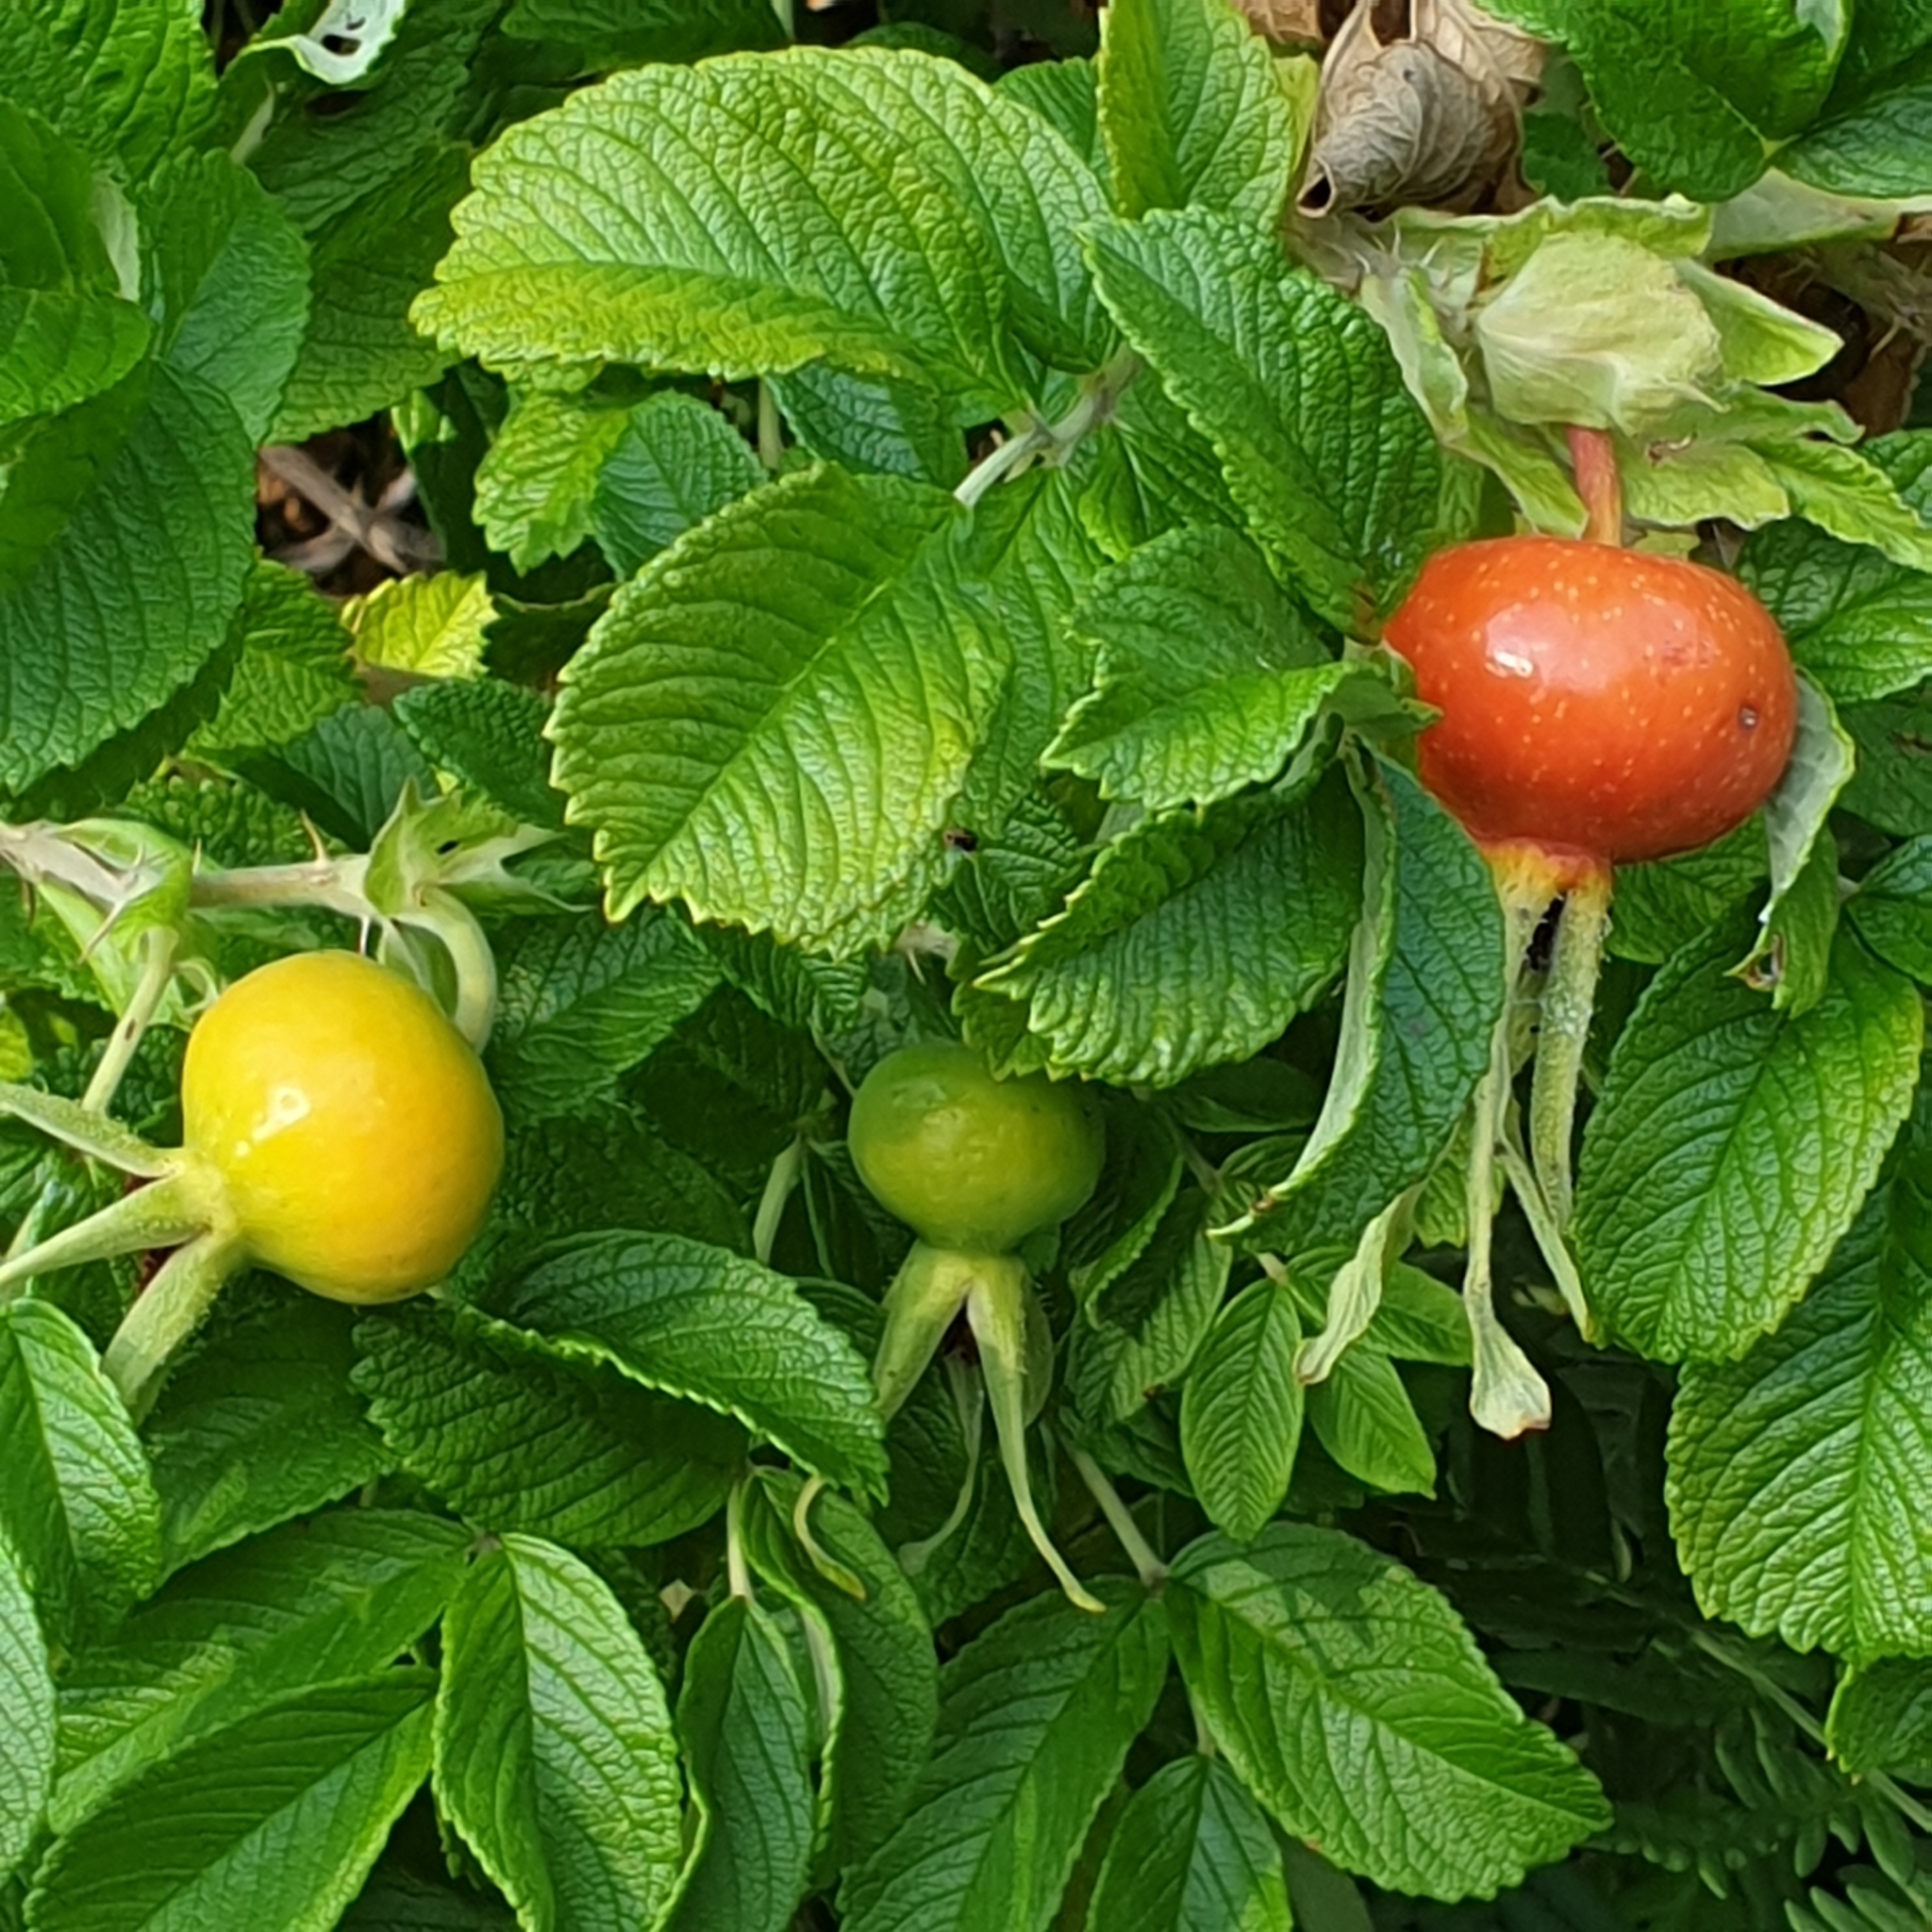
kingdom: Plantae
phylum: Tracheophyta
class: Magnoliopsida
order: Rosales
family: Rosaceae
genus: Rosa
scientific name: Rosa rugosa
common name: Japanese rose
